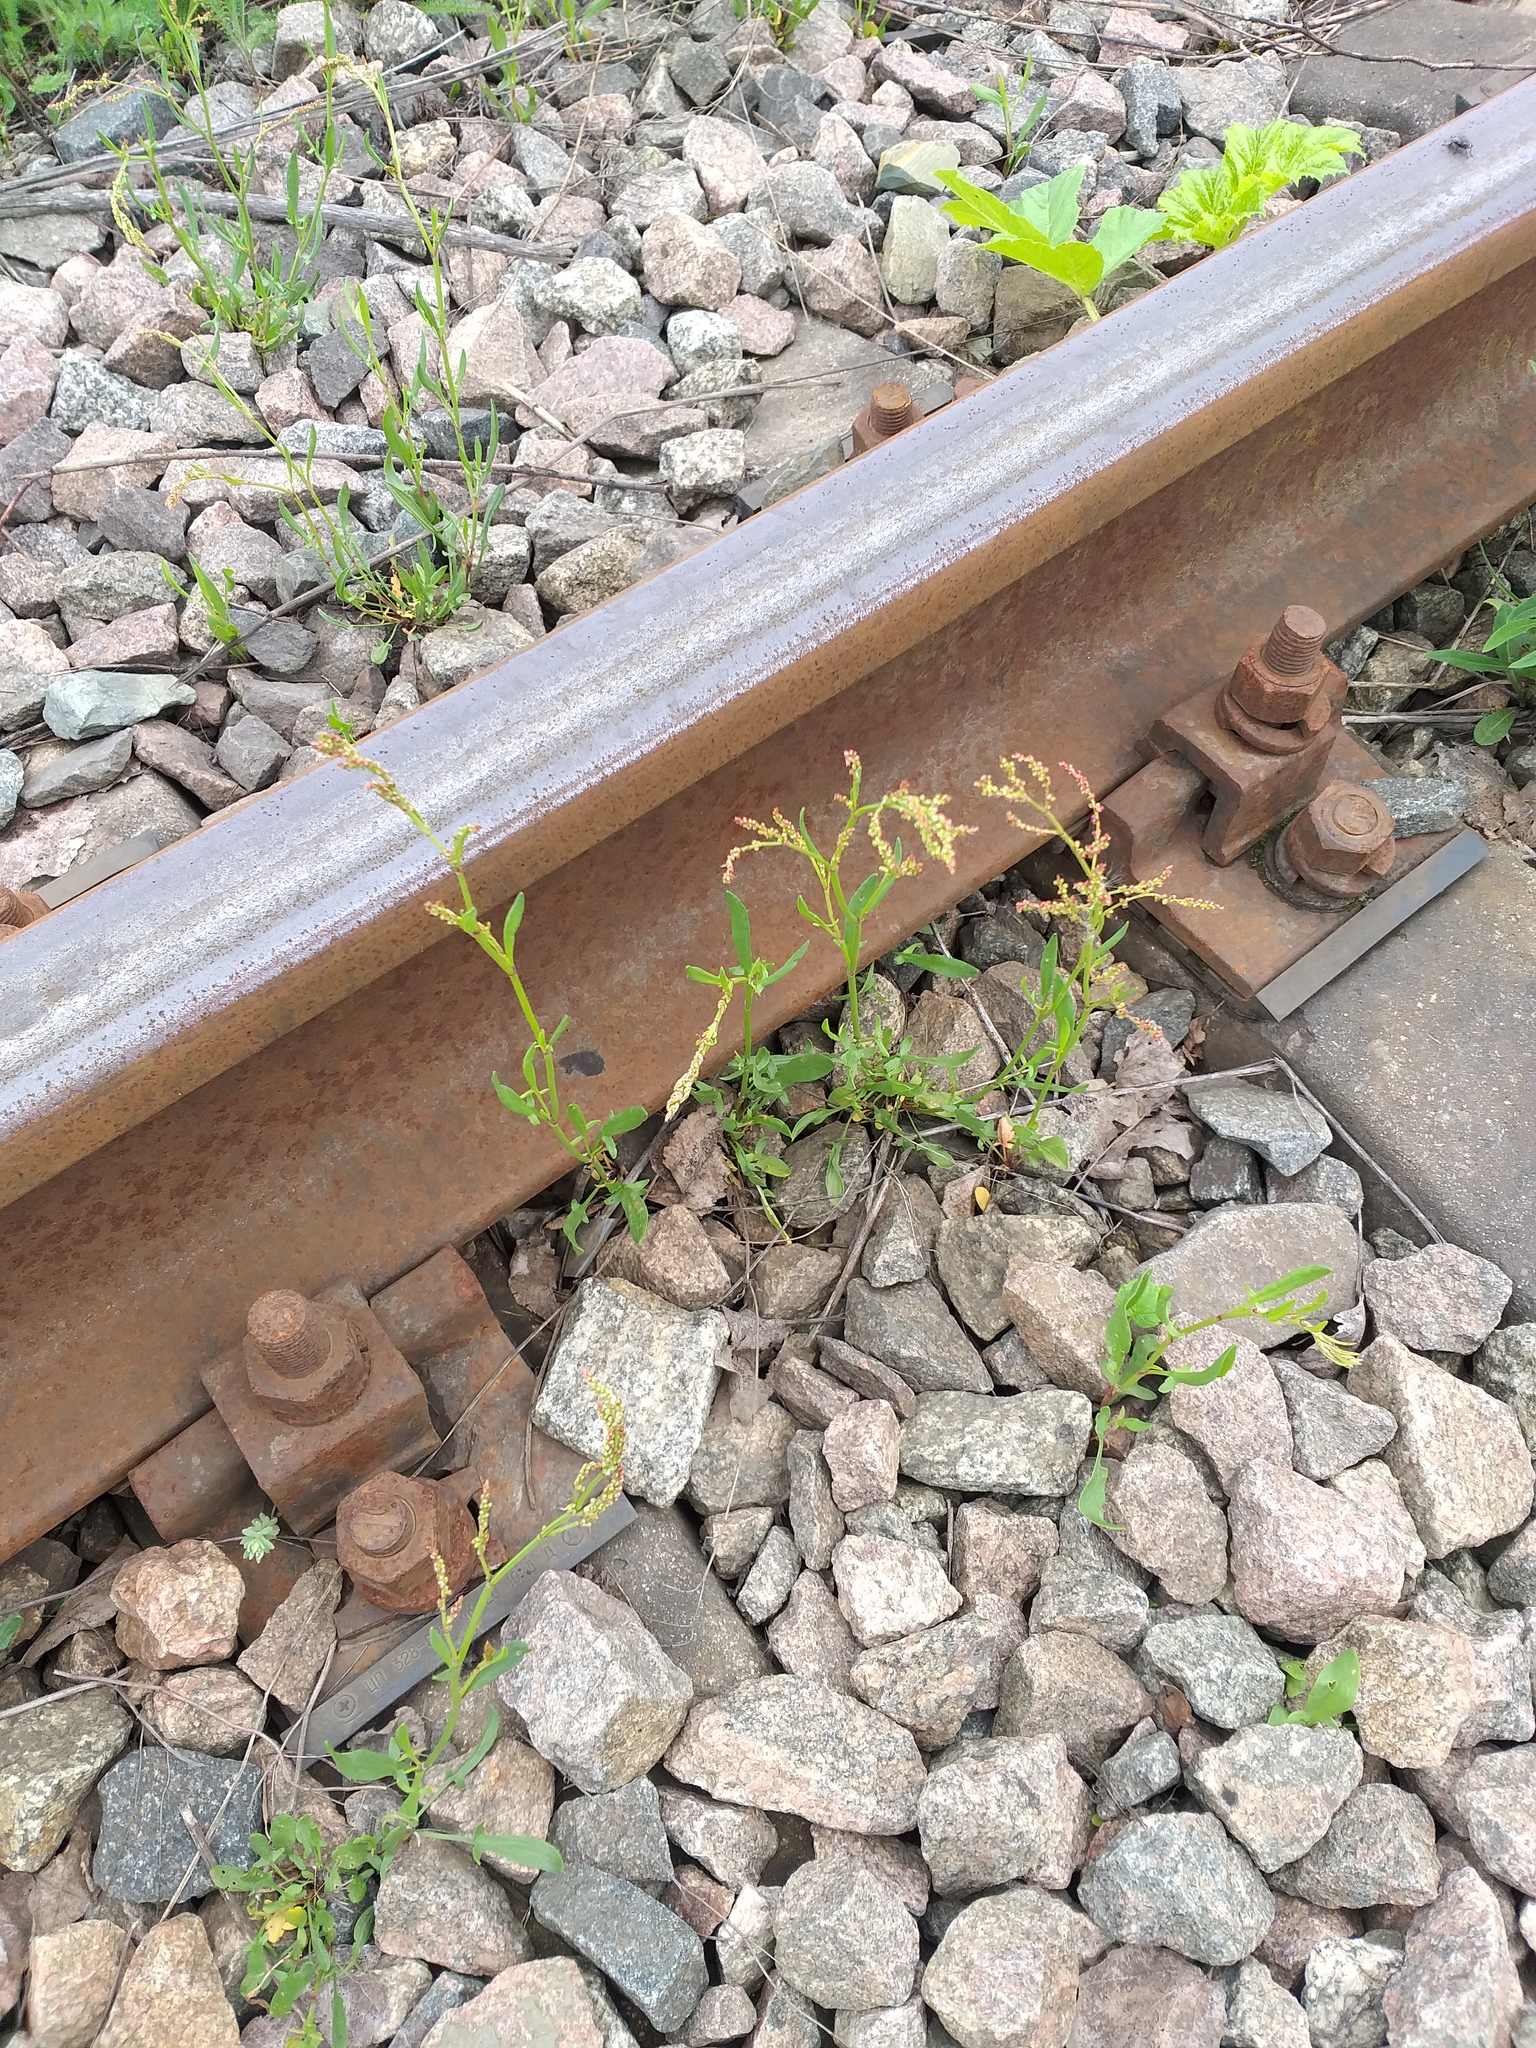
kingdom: Plantae
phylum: Tracheophyta
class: Magnoliopsida
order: Caryophyllales
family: Polygonaceae
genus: Rumex
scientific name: Rumex acetosella
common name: Common sheep sorrel
